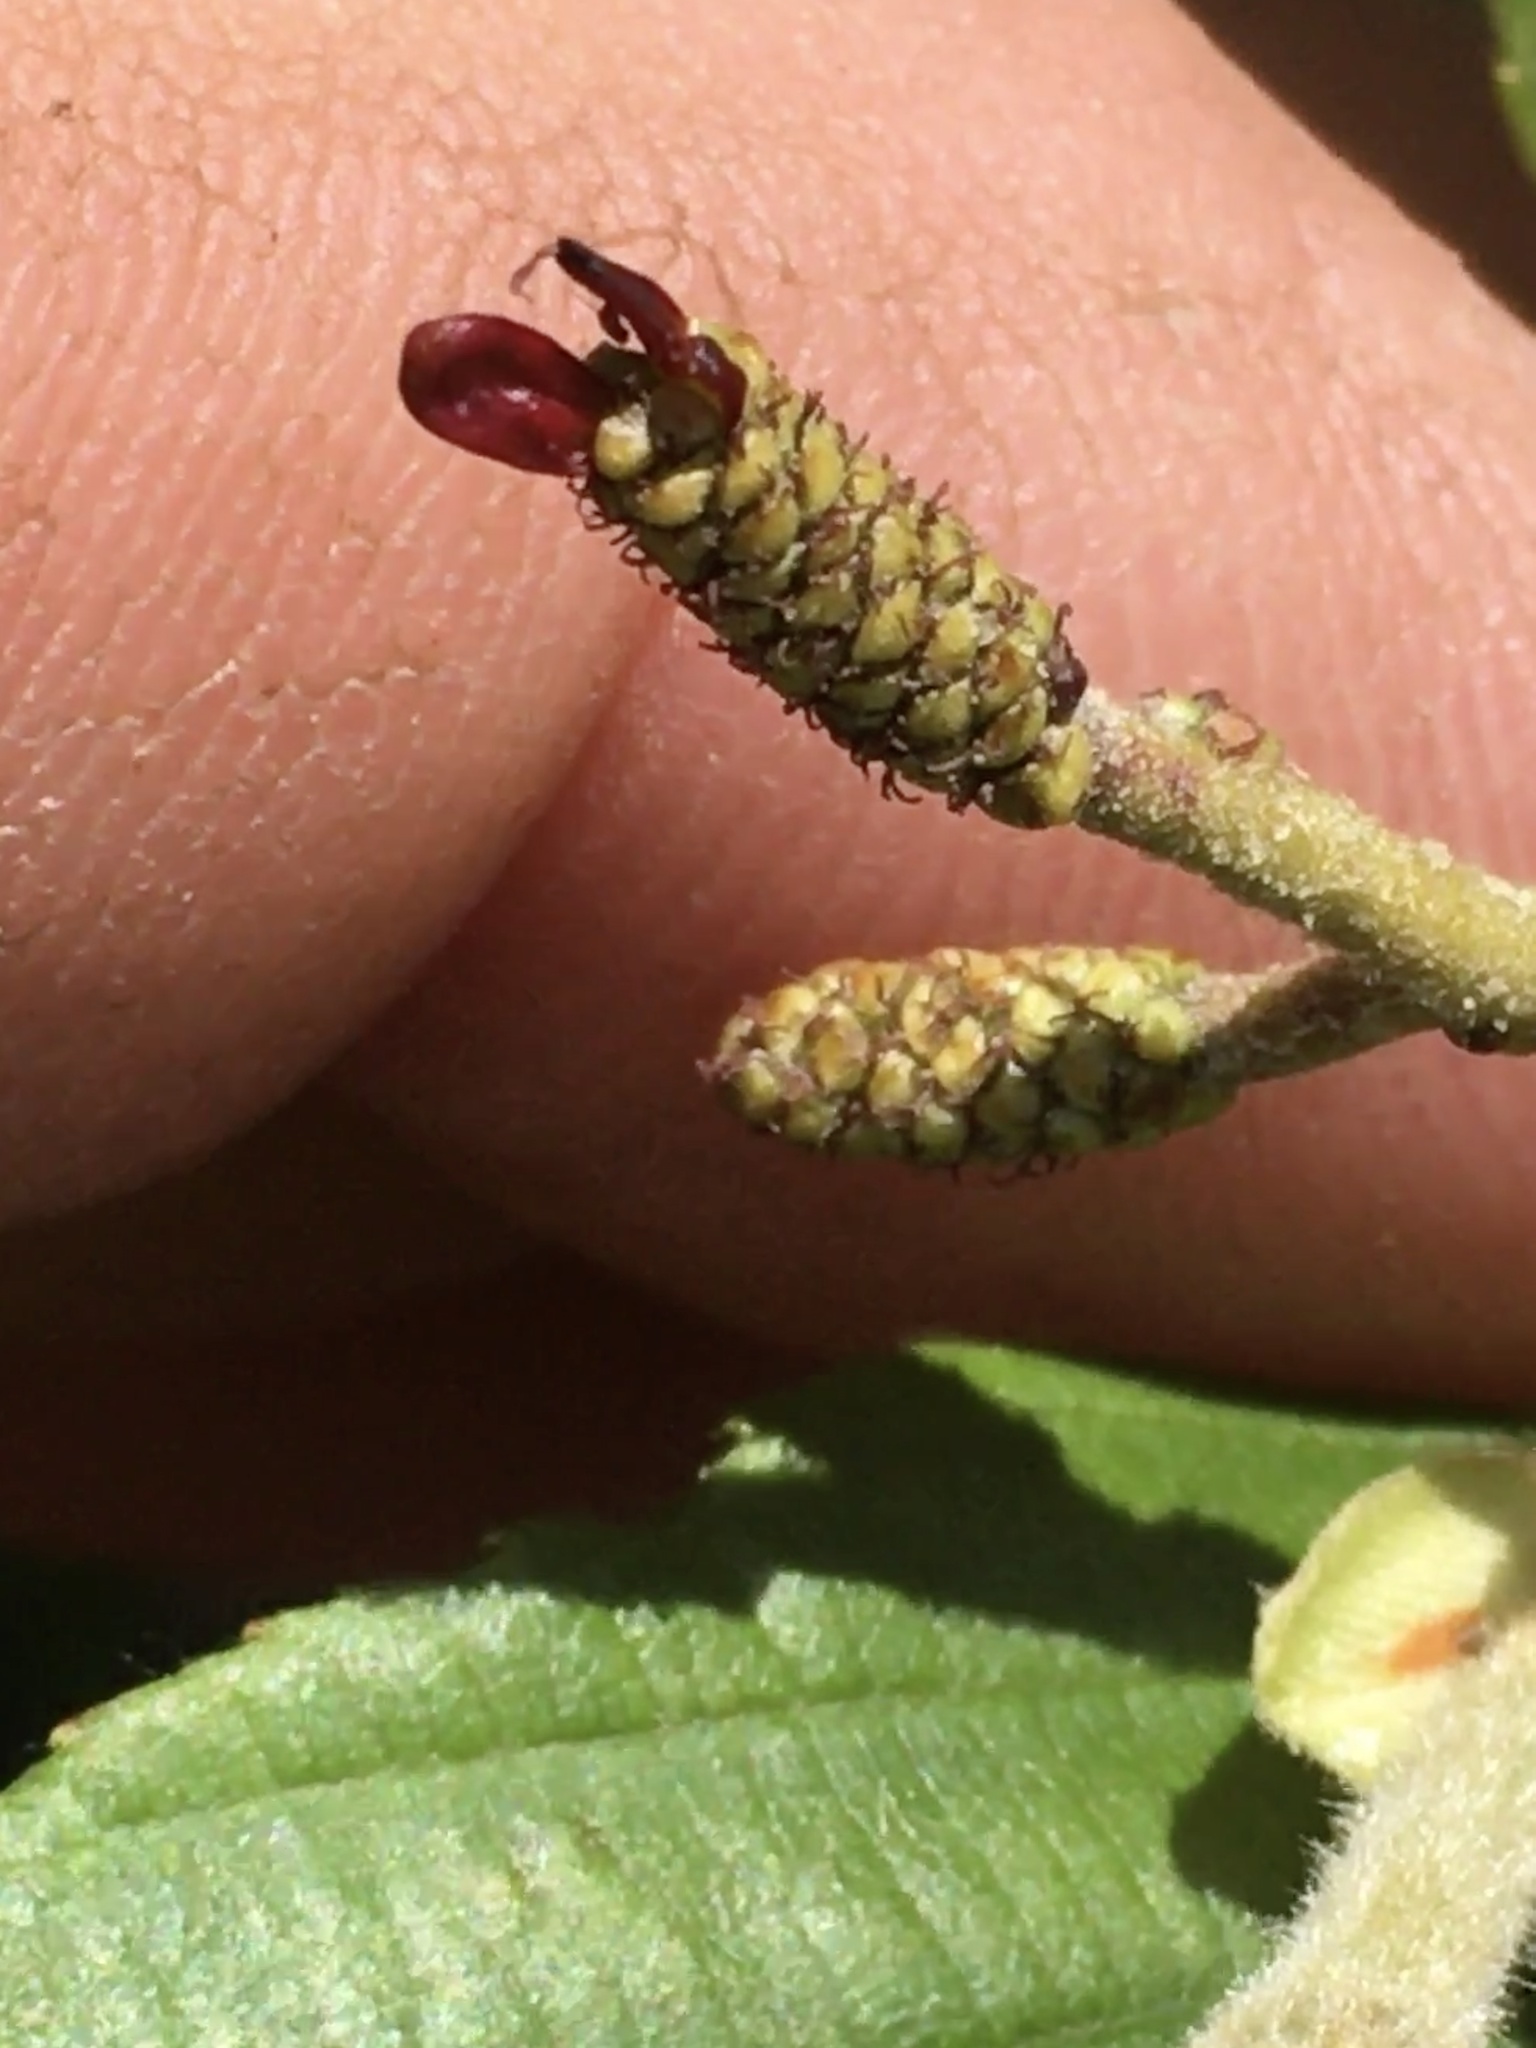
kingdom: Plantae
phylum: Tracheophyta
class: Magnoliopsida
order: Fagales
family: Betulaceae
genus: Alnus
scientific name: Alnus serrulata
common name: Hazel alder
